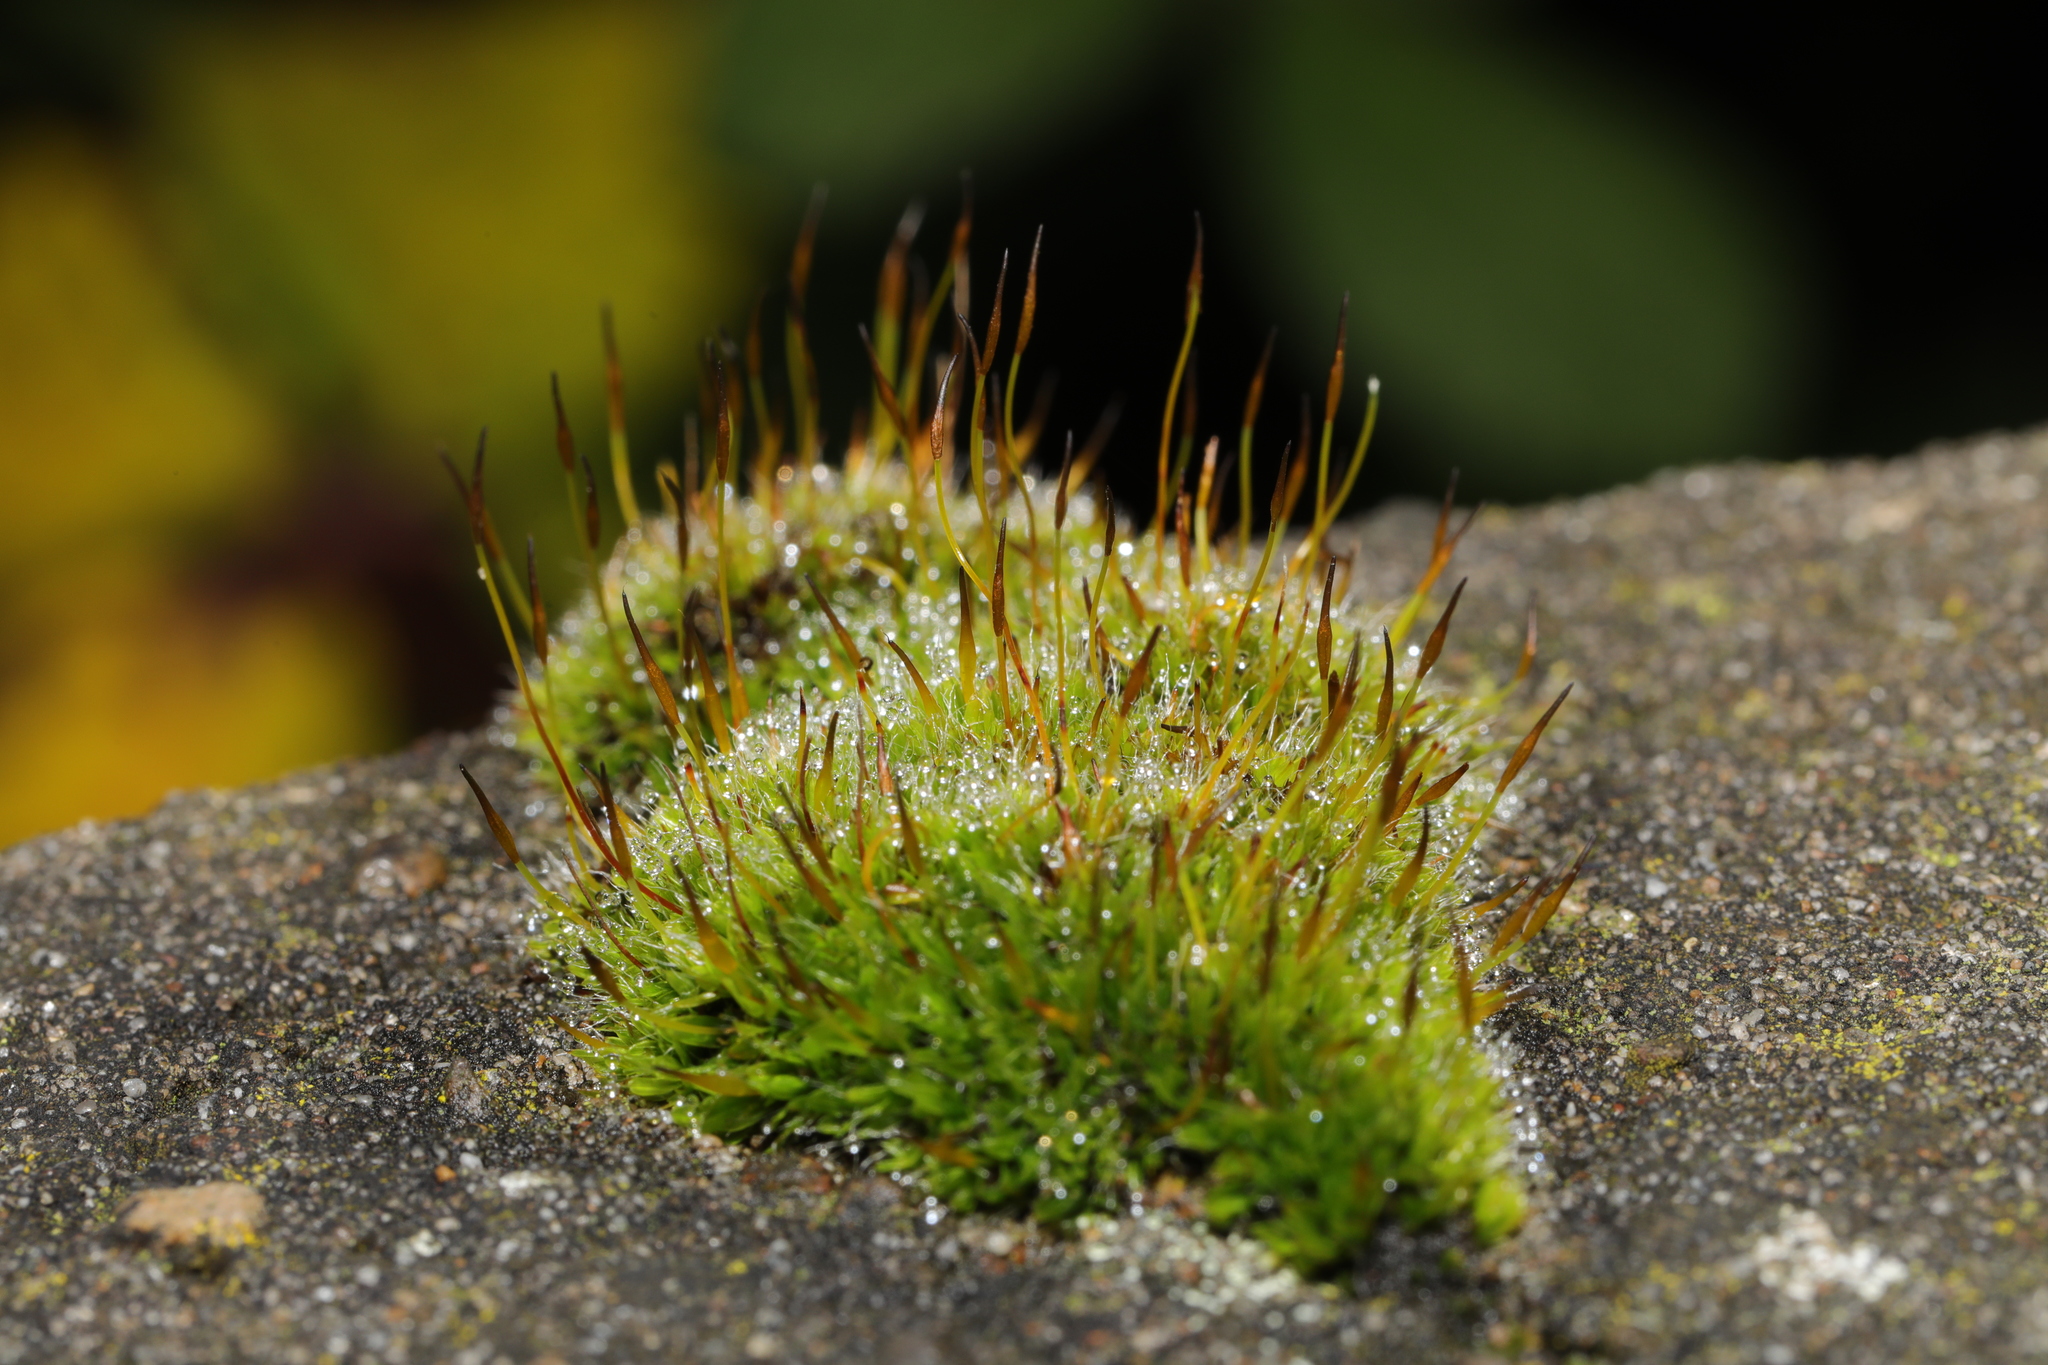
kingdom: Plantae
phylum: Bryophyta
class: Bryopsida
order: Pottiales
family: Pottiaceae
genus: Tortula
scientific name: Tortula muralis
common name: Wall screw-moss
